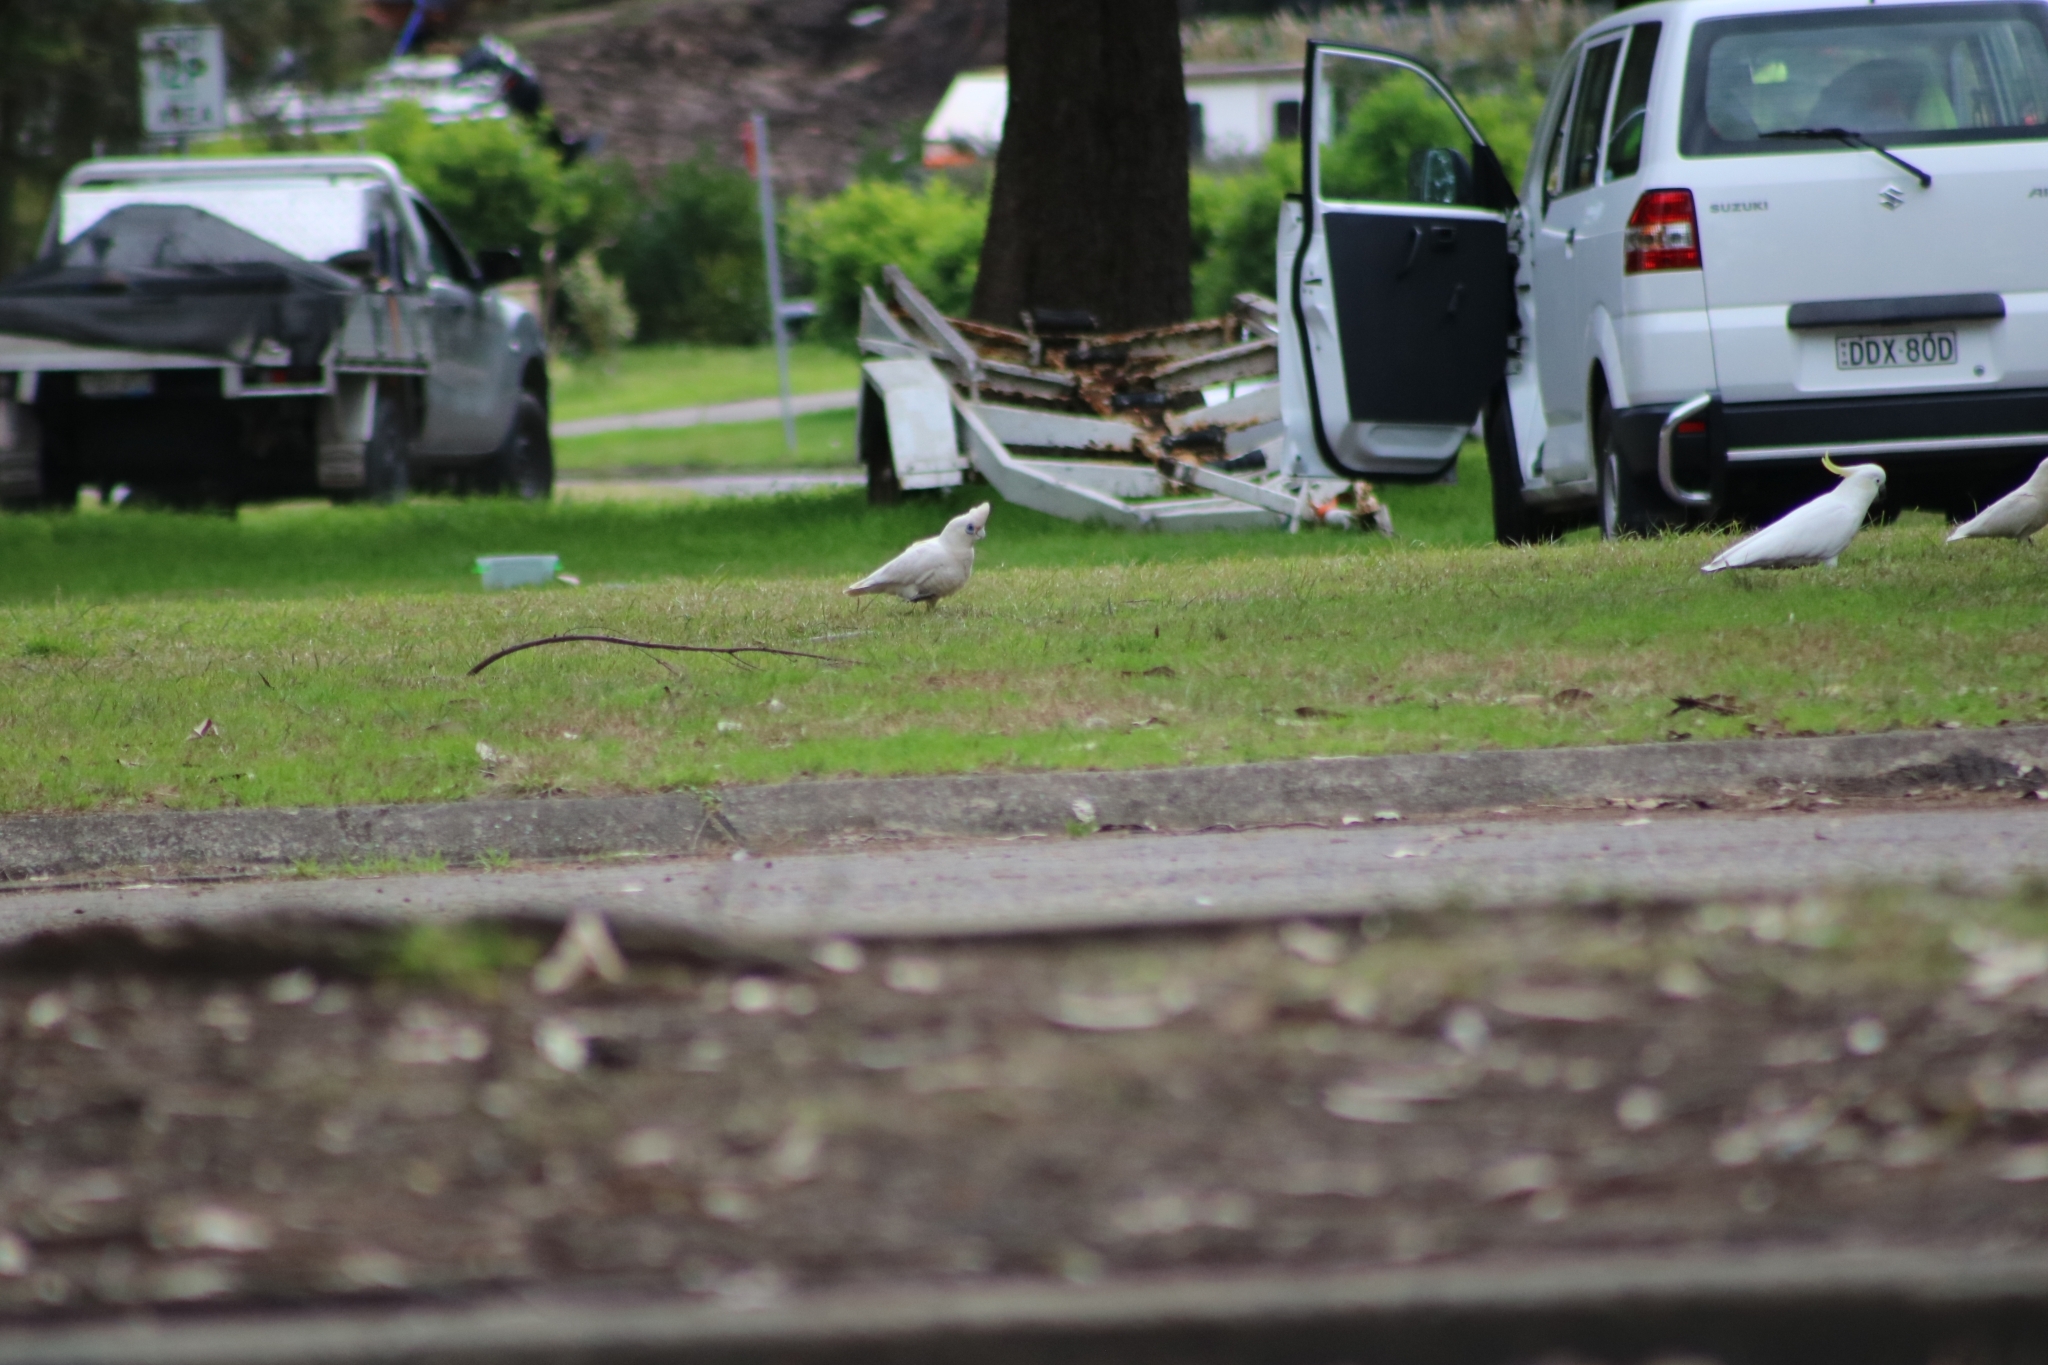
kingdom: Animalia
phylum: Chordata
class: Aves
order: Psittaciformes
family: Psittacidae
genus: Cacatua
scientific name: Cacatua sanguinea
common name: Little corella
